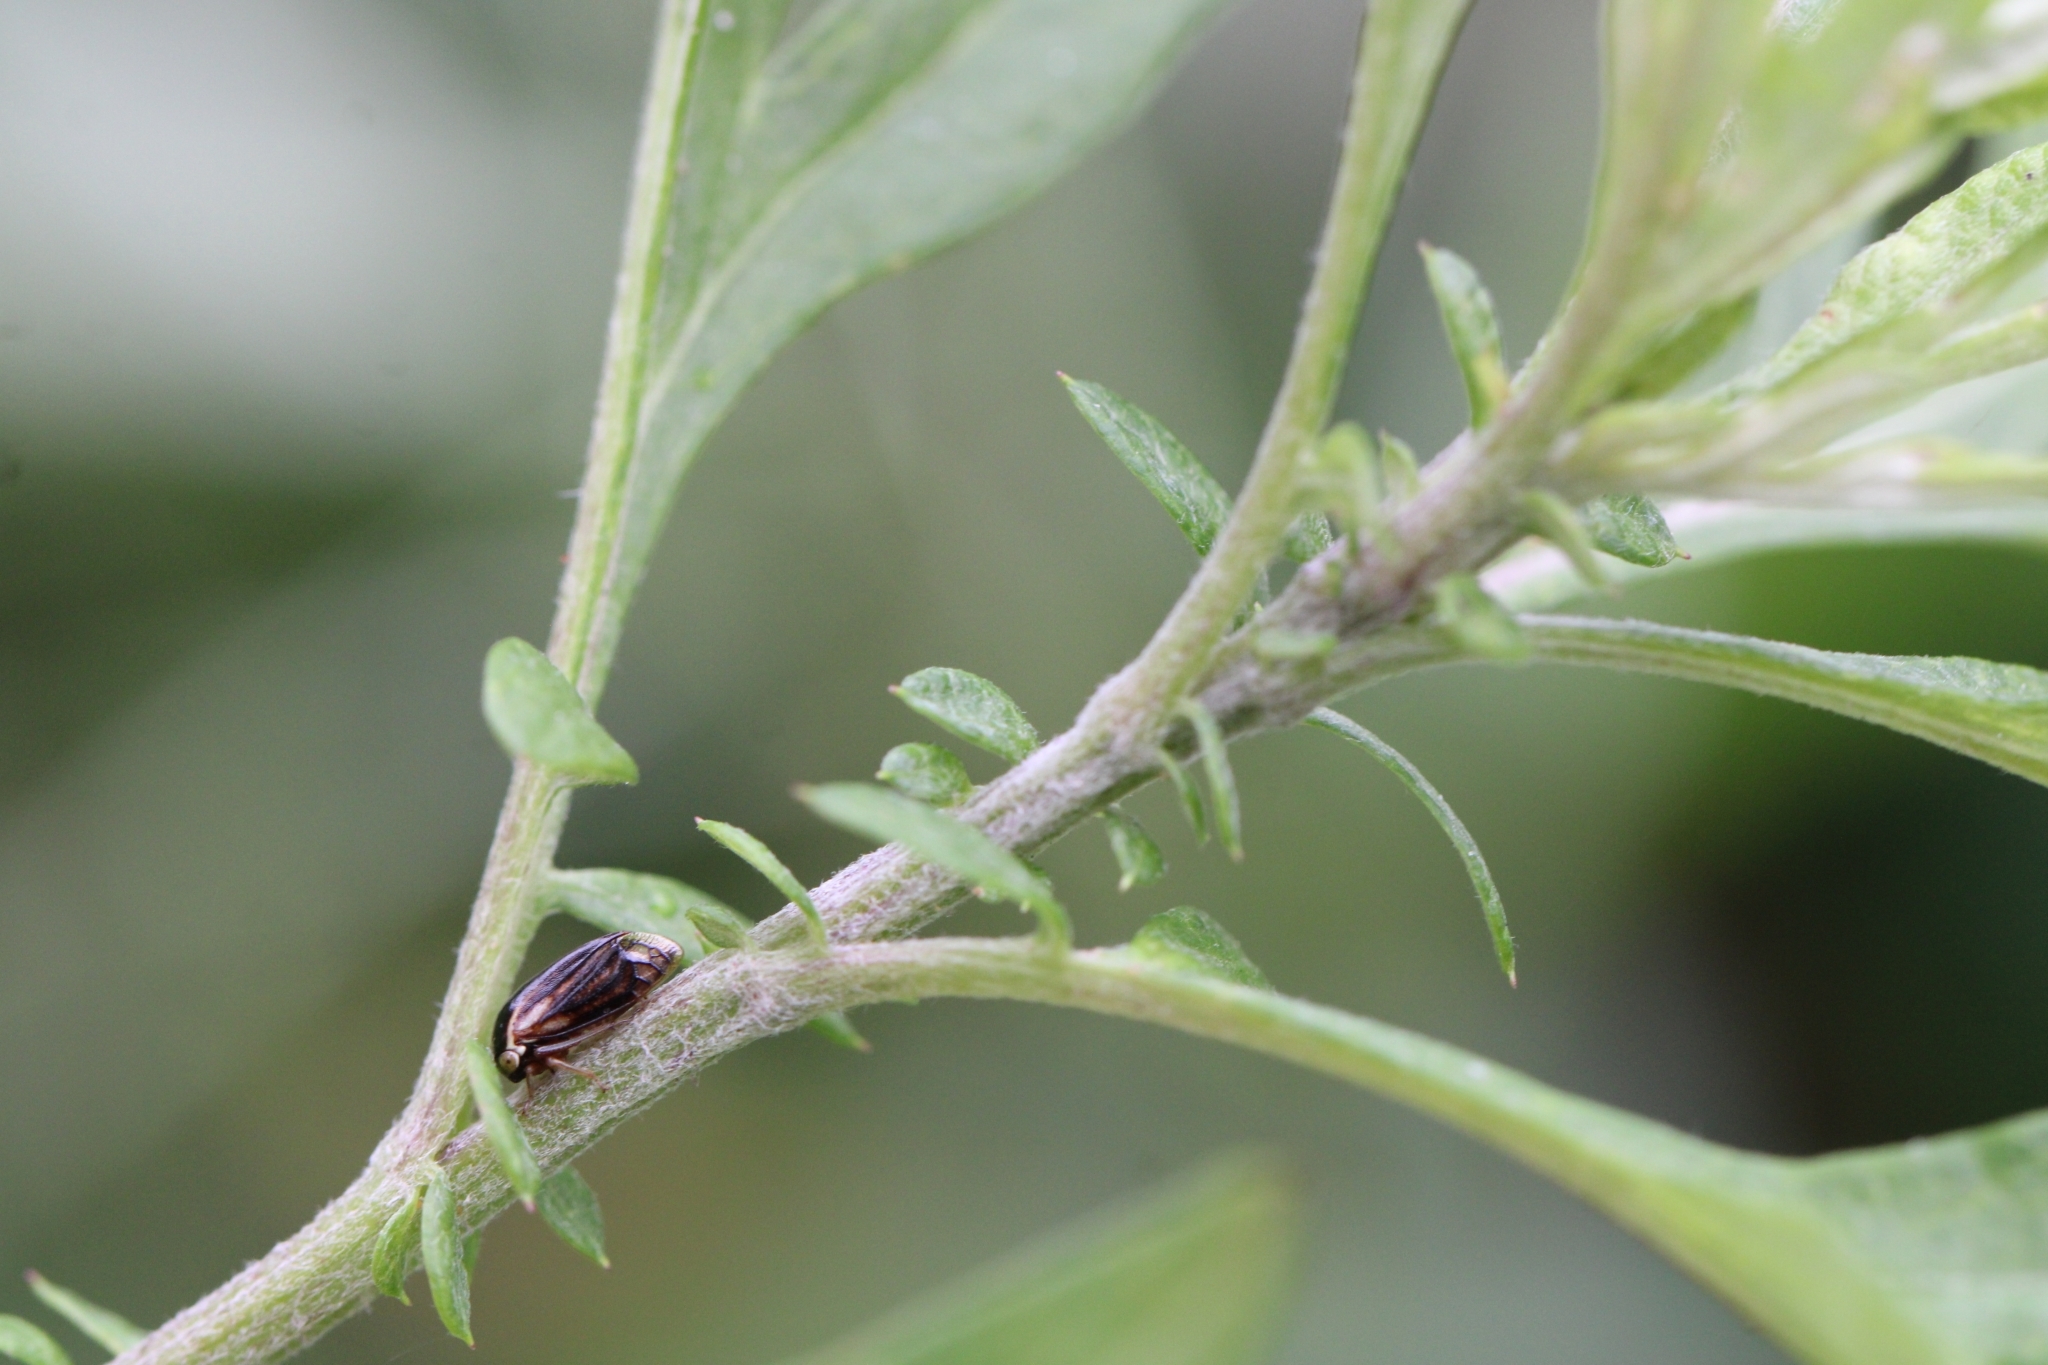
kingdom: Animalia
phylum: Arthropoda
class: Insecta
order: Hemiptera
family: Membracidae
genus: Acutalis
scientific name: Acutalis tartarea
